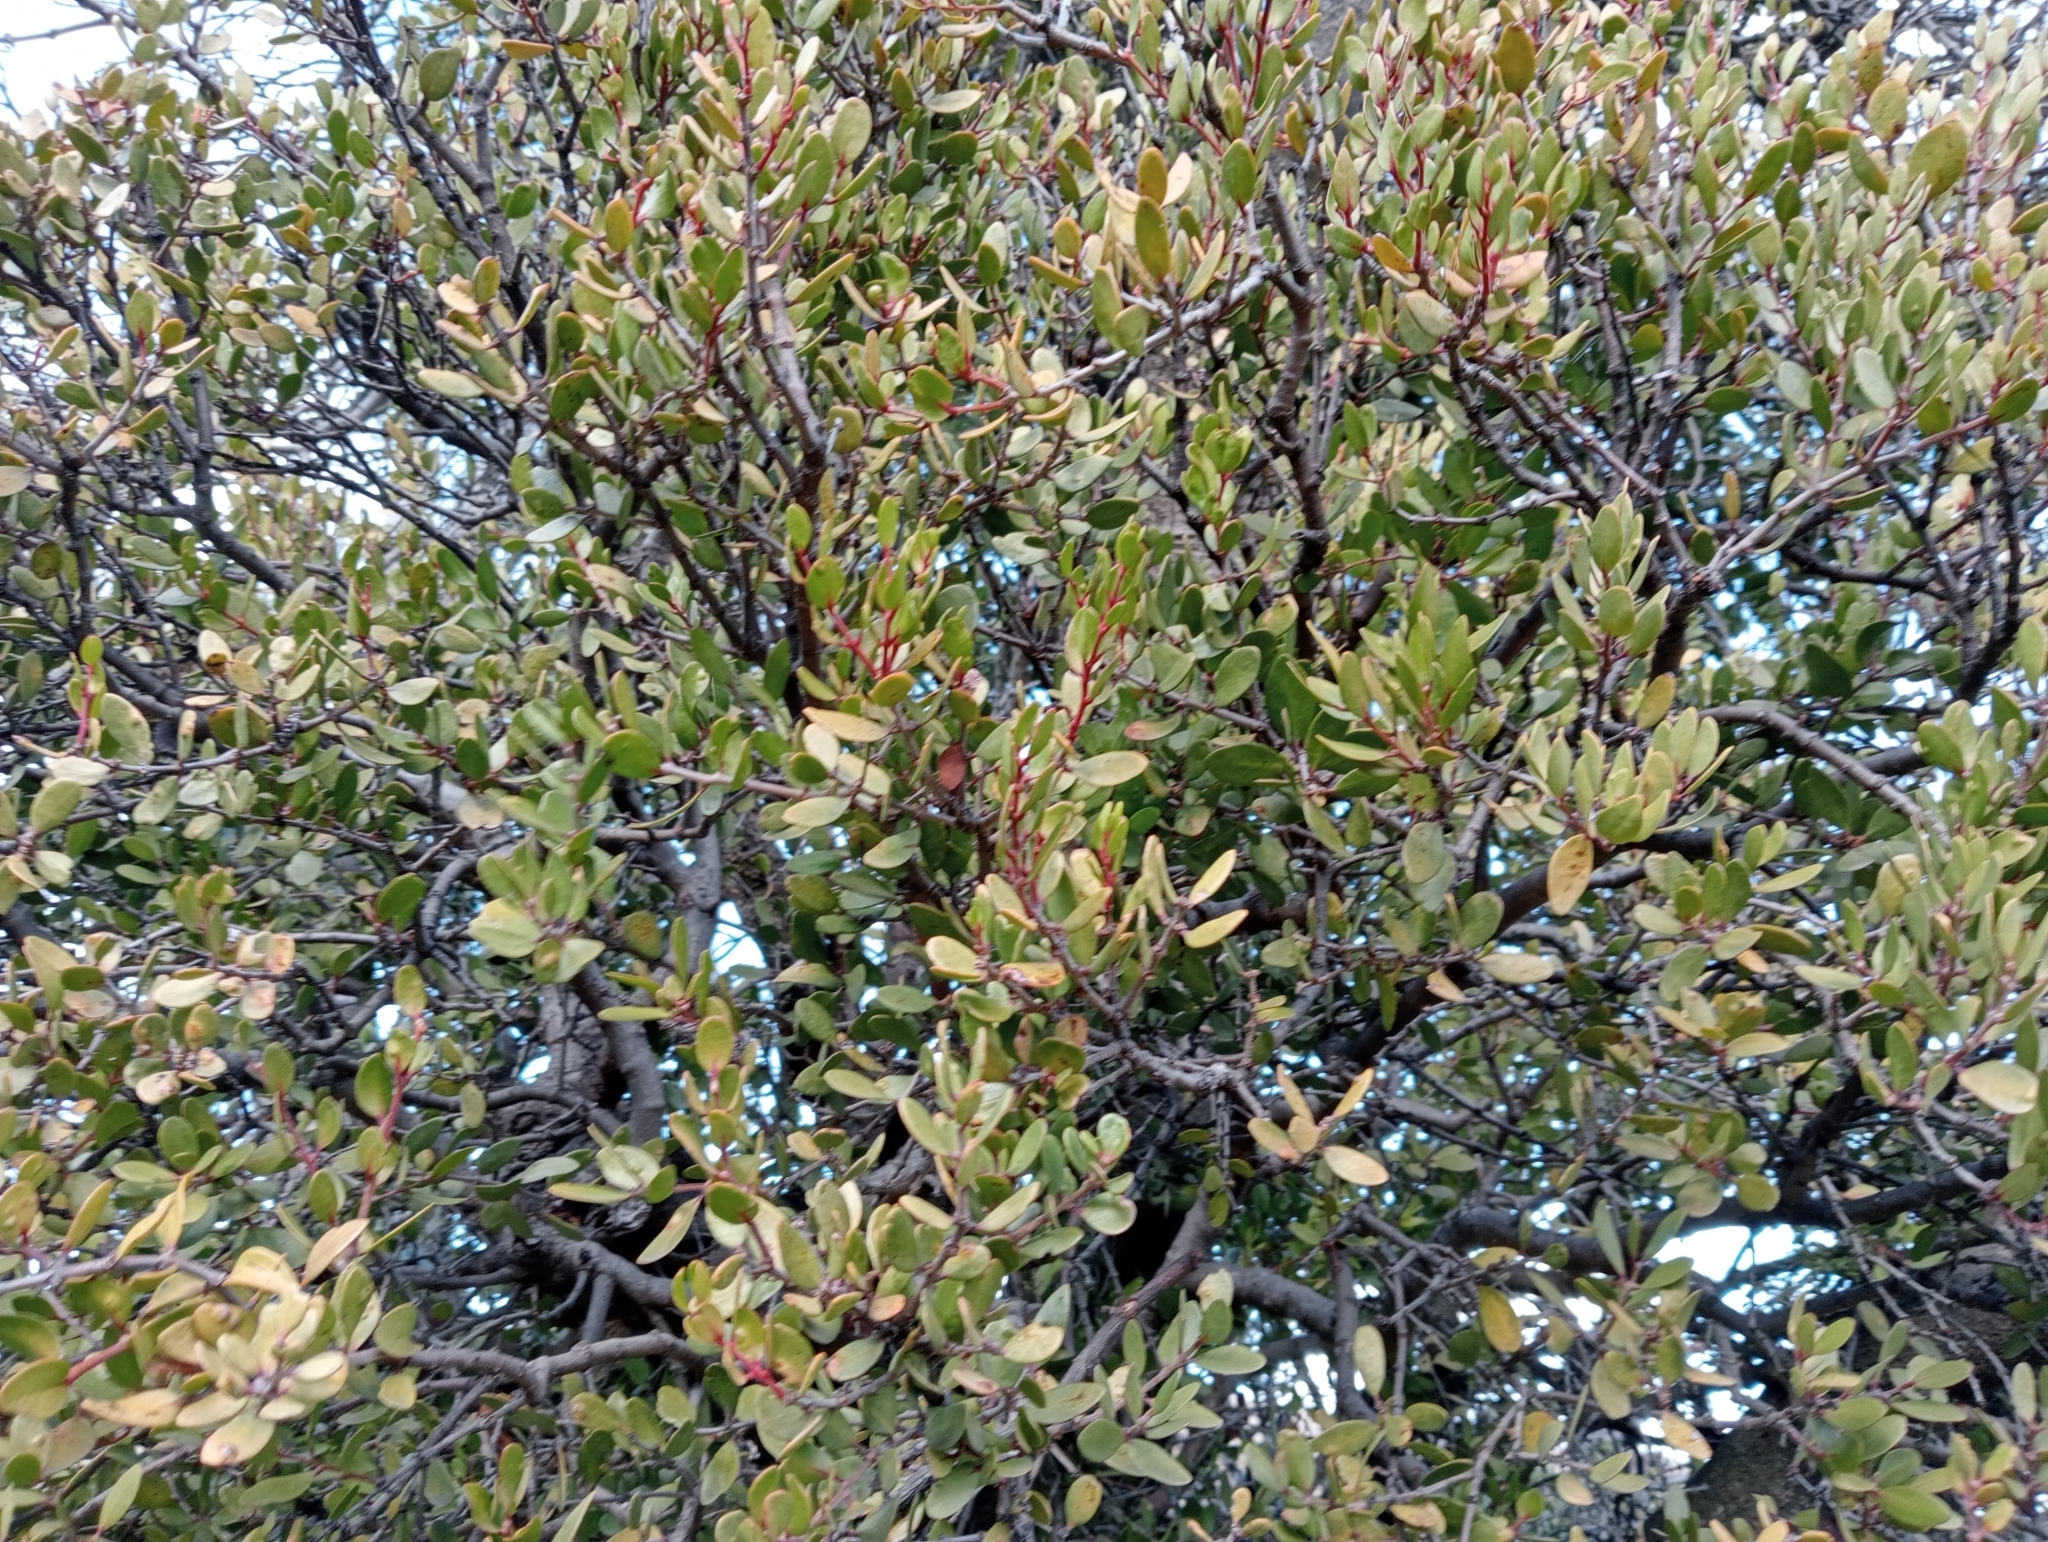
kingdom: Plantae
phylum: Tracheophyta
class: Magnoliopsida
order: Santalales
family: Loranthaceae
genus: Peraxilla
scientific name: Peraxilla tetrapetala
